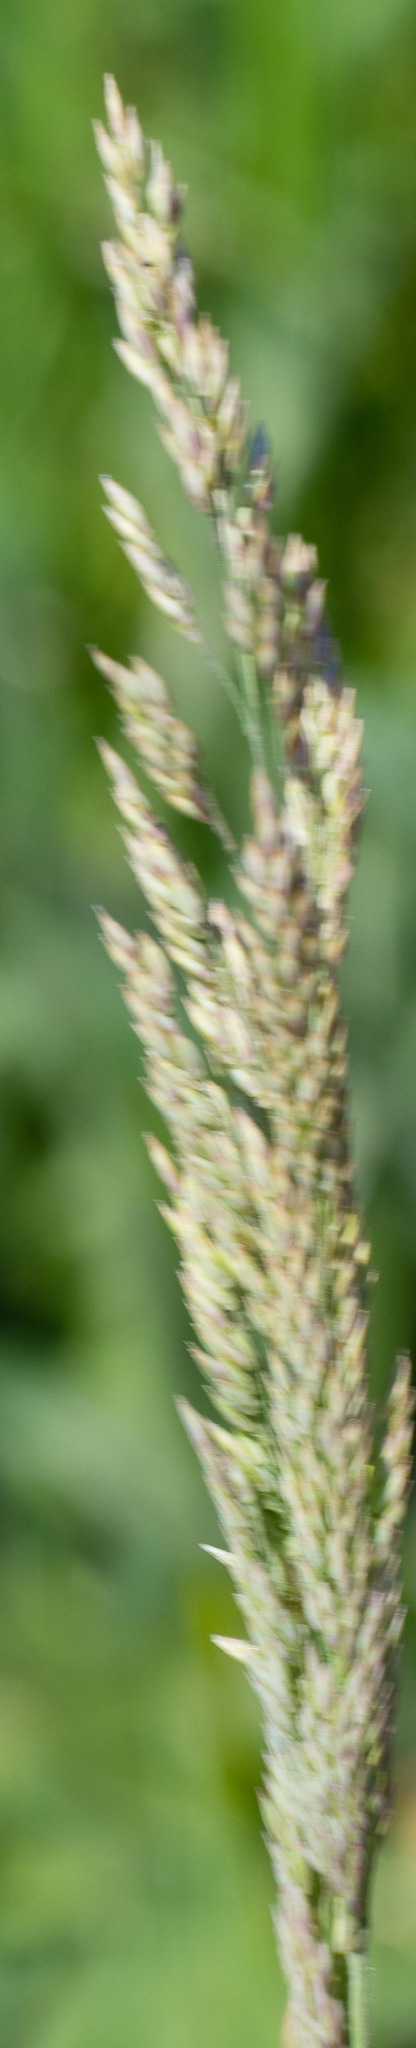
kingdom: Plantae
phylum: Tracheophyta
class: Liliopsida
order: Poales
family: Poaceae
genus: Holcus
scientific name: Holcus lanatus
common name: Yorkshire-fog
